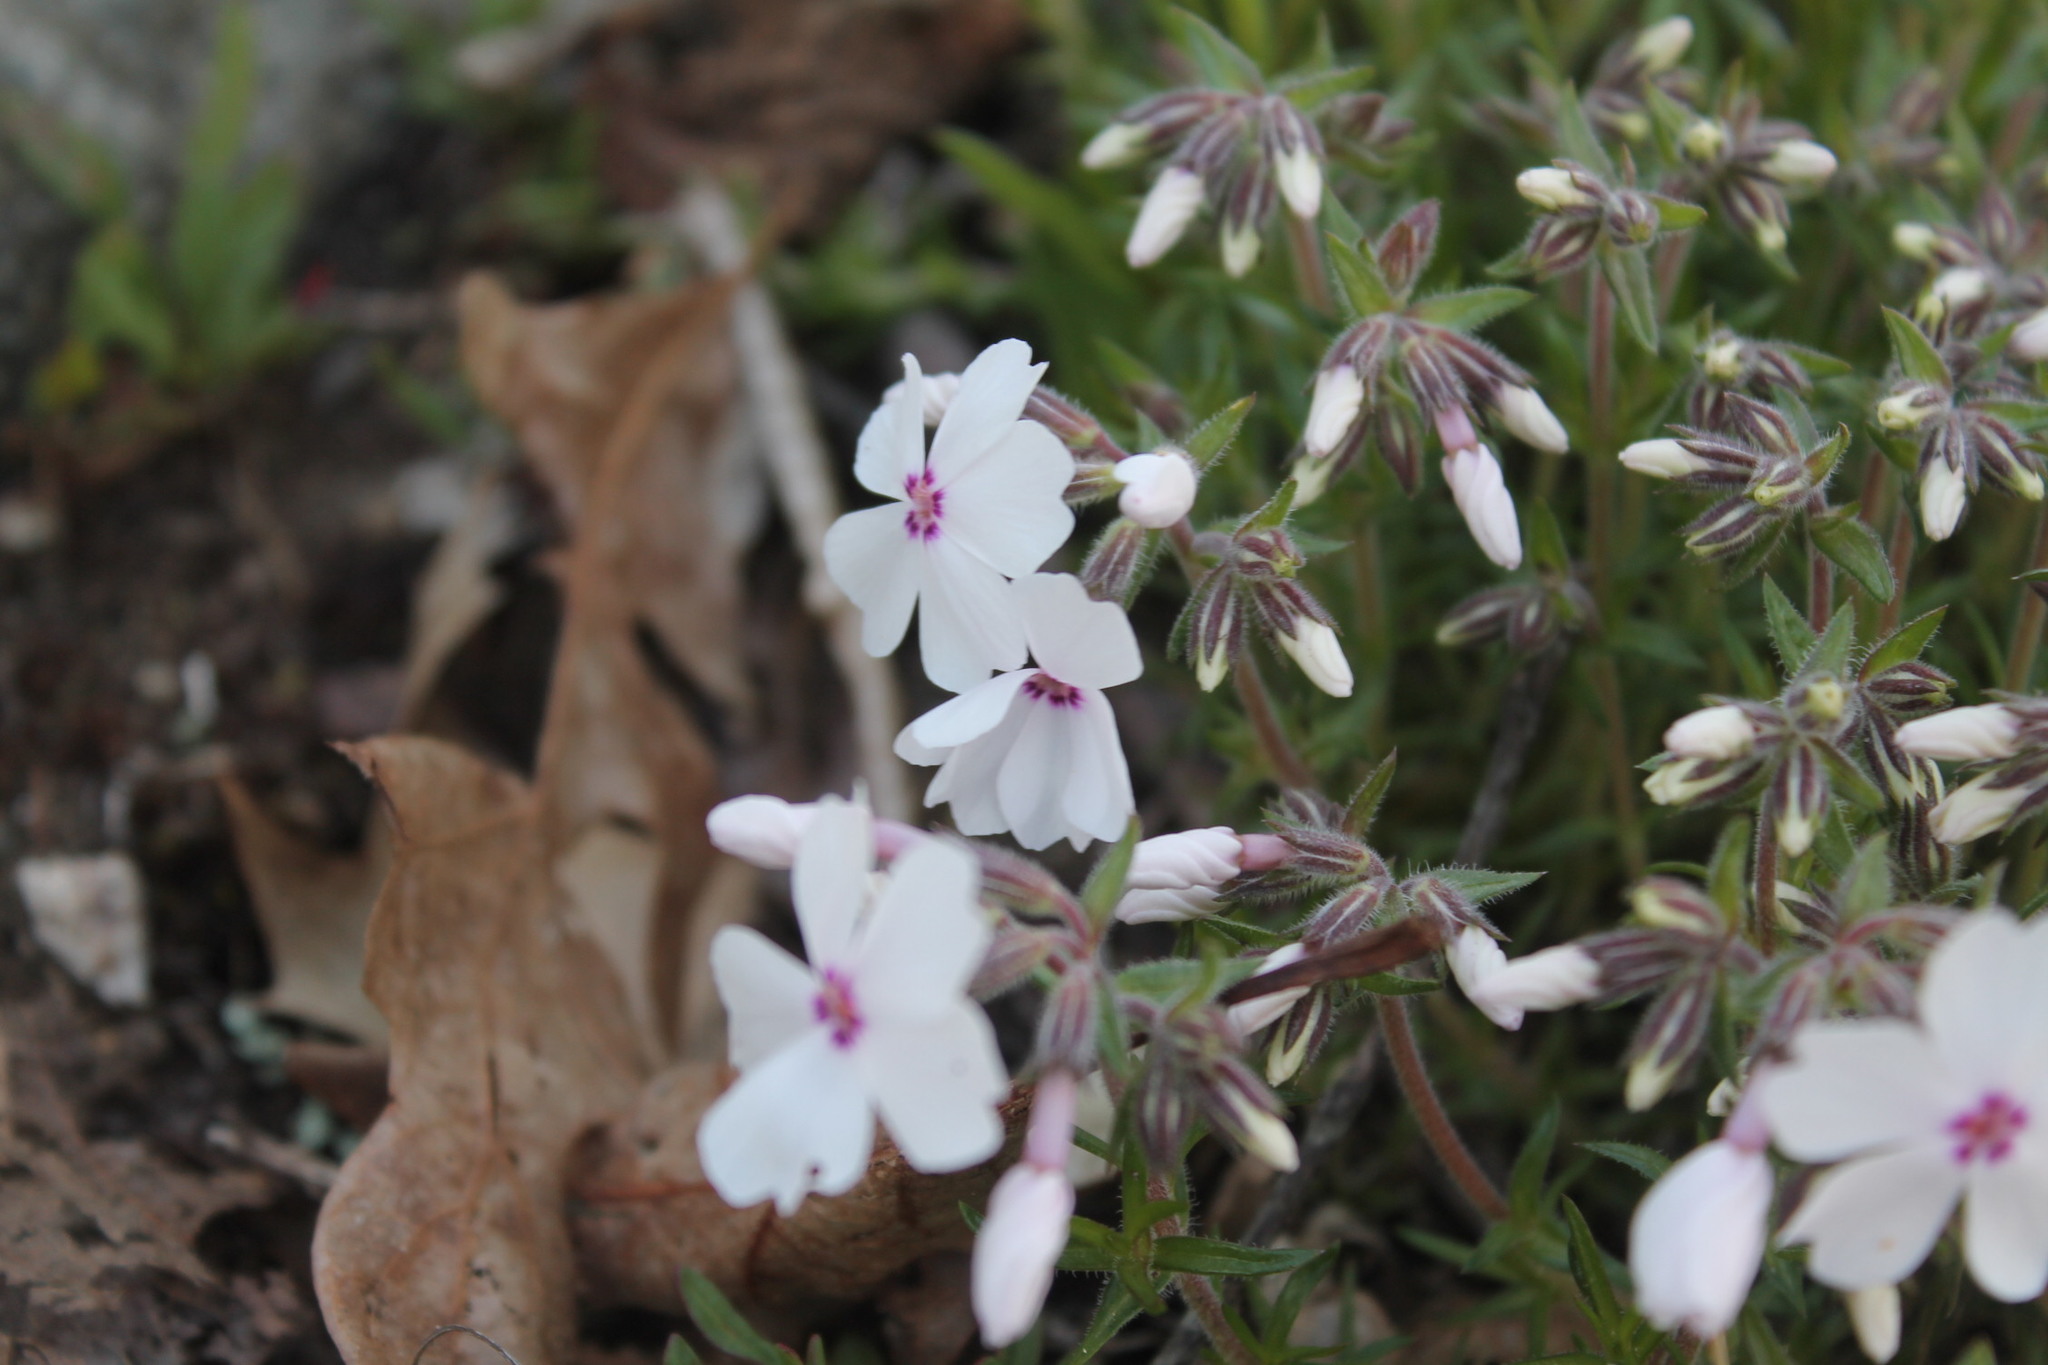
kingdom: Plantae
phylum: Tracheophyta
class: Magnoliopsida
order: Ericales
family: Polemoniaceae
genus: Phlox
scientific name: Phlox subulata
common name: Moss phlox
